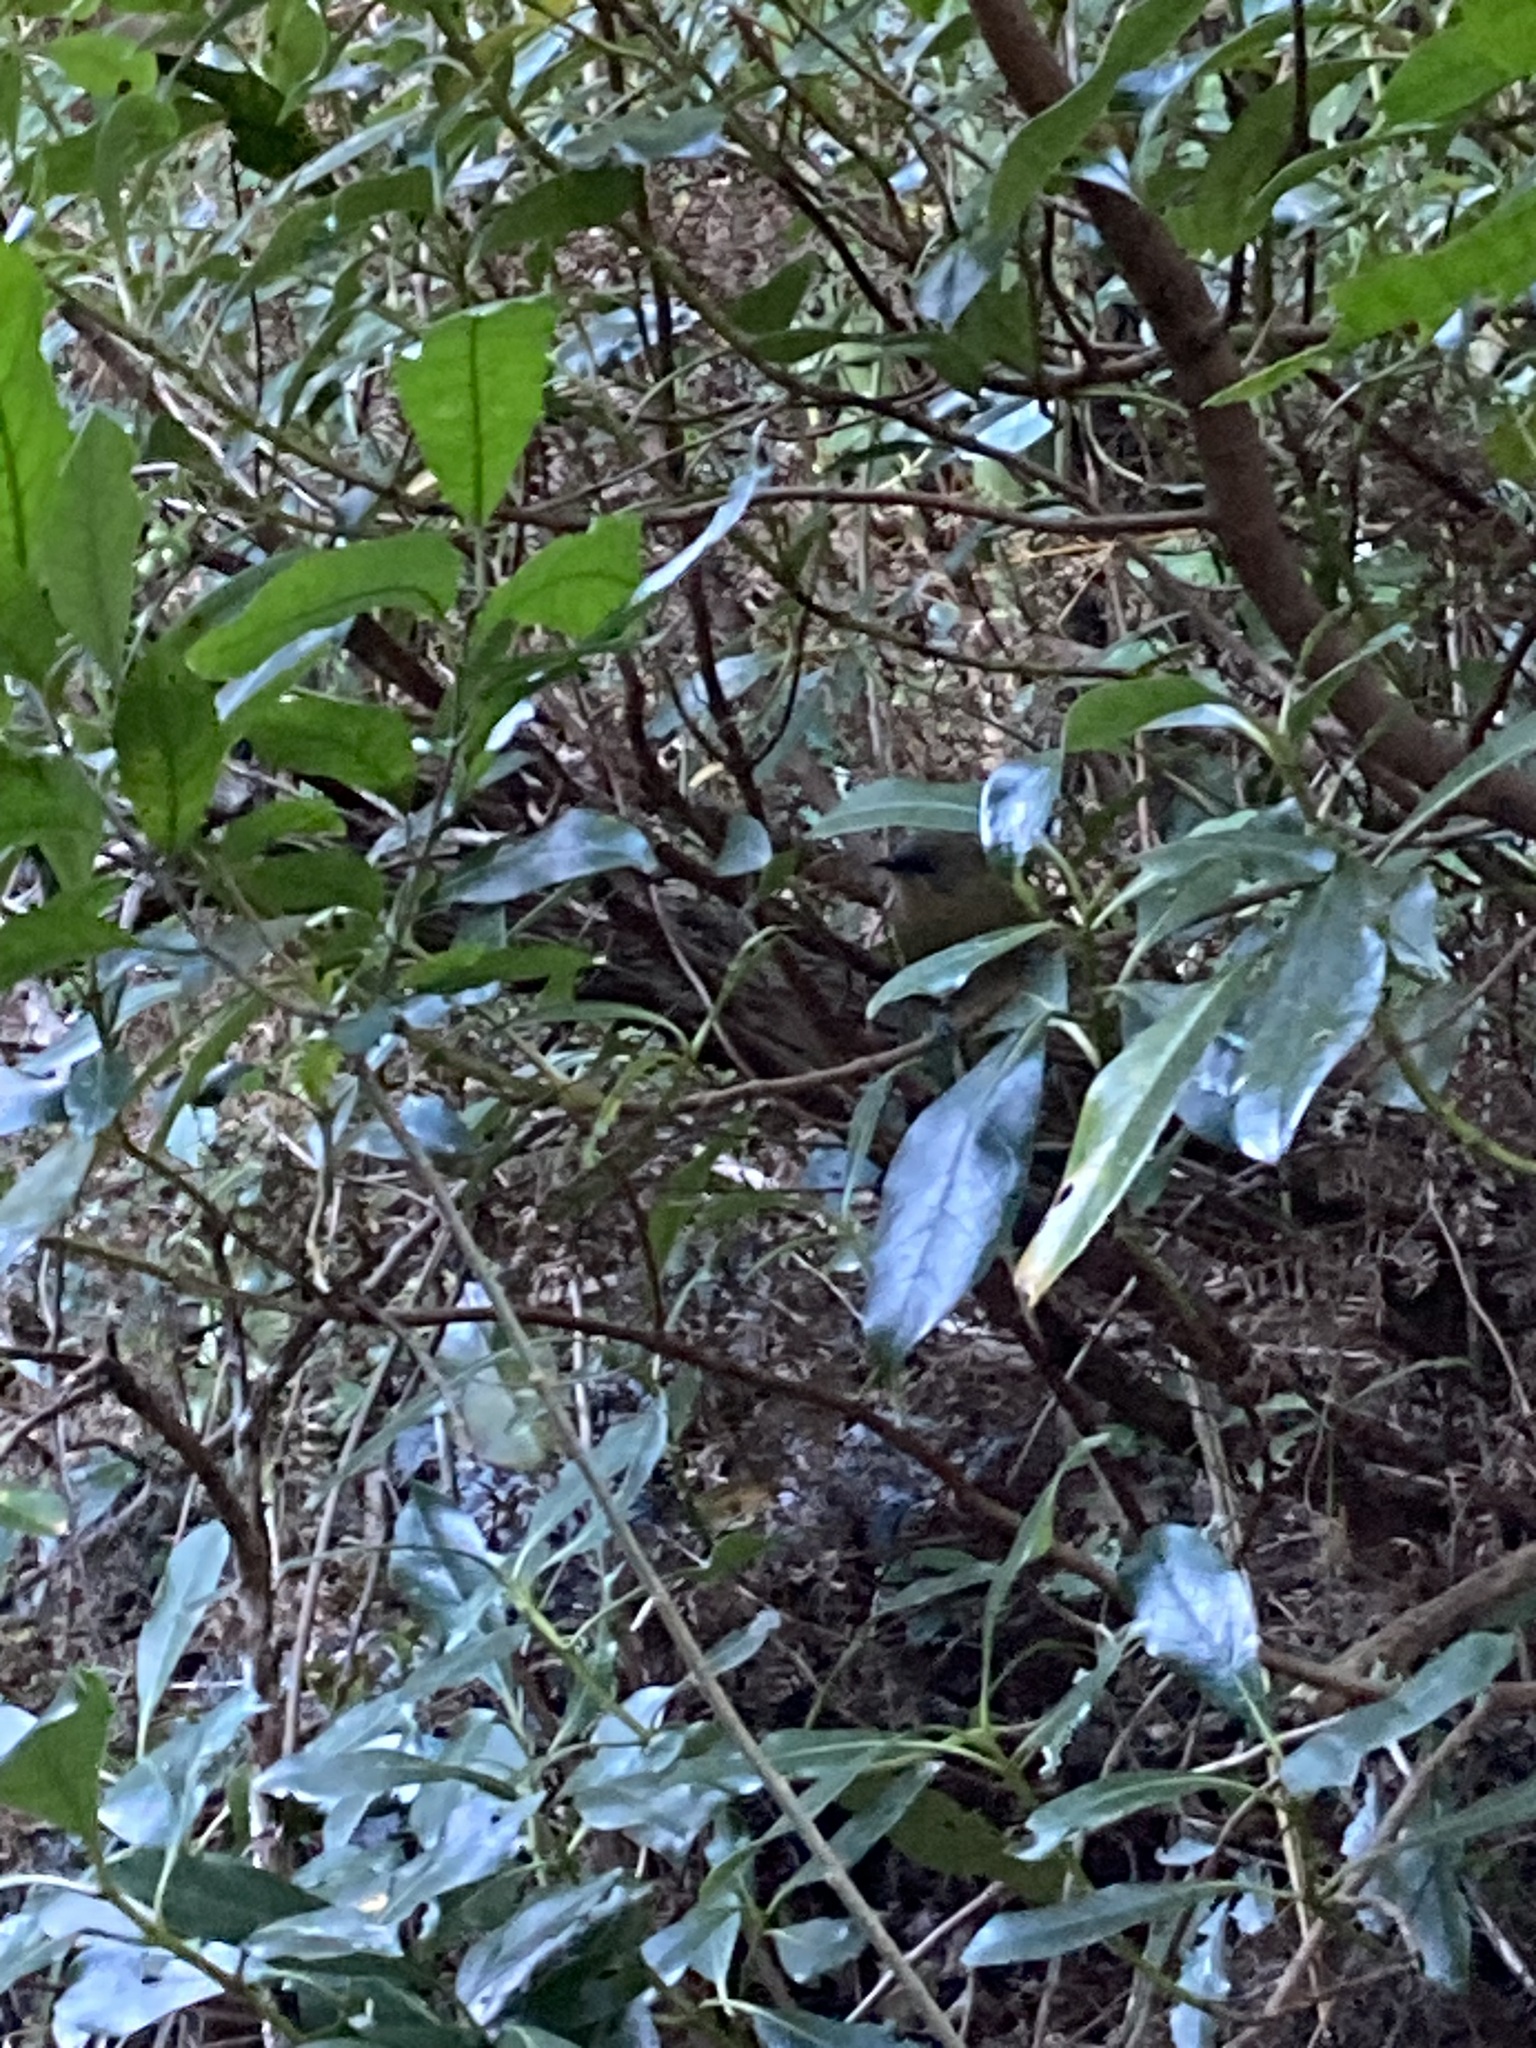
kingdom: Animalia
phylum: Chordata
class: Aves
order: Passeriformes
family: Meliphagidae
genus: Anthornis
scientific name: Anthornis melanura
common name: New zealand bellbird
